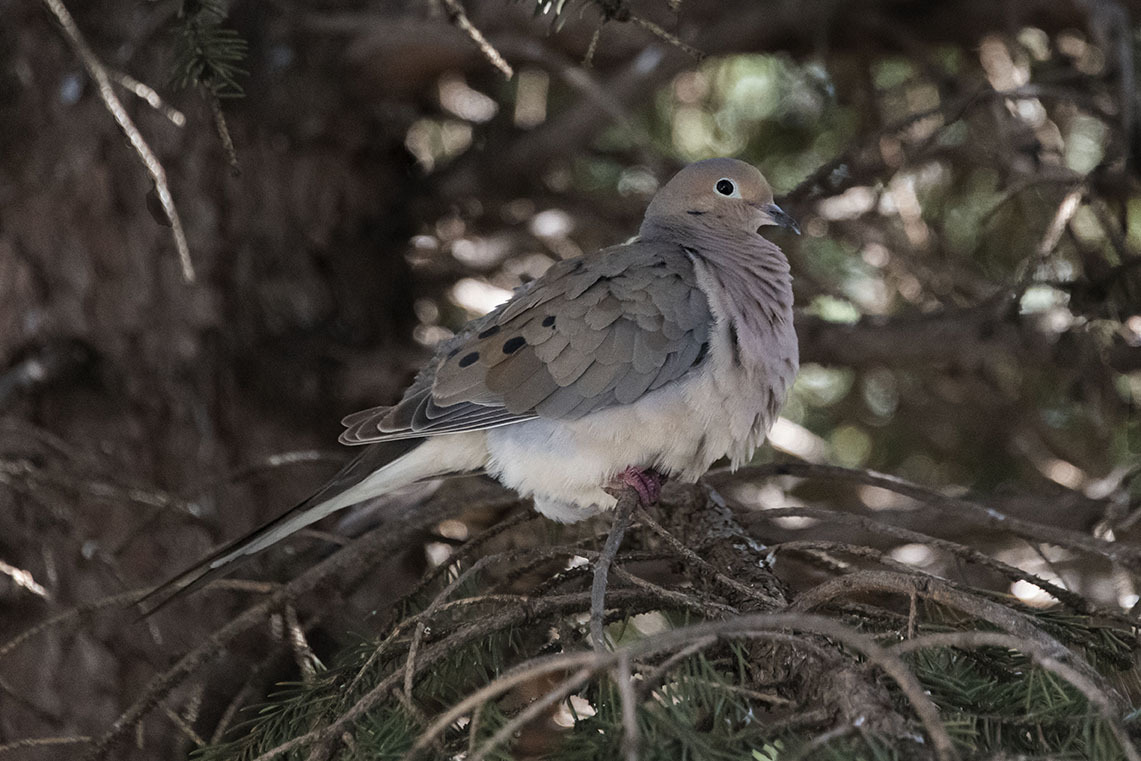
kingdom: Animalia
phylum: Chordata
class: Aves
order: Columbiformes
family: Columbidae
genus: Zenaida
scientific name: Zenaida macroura
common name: Mourning dove
